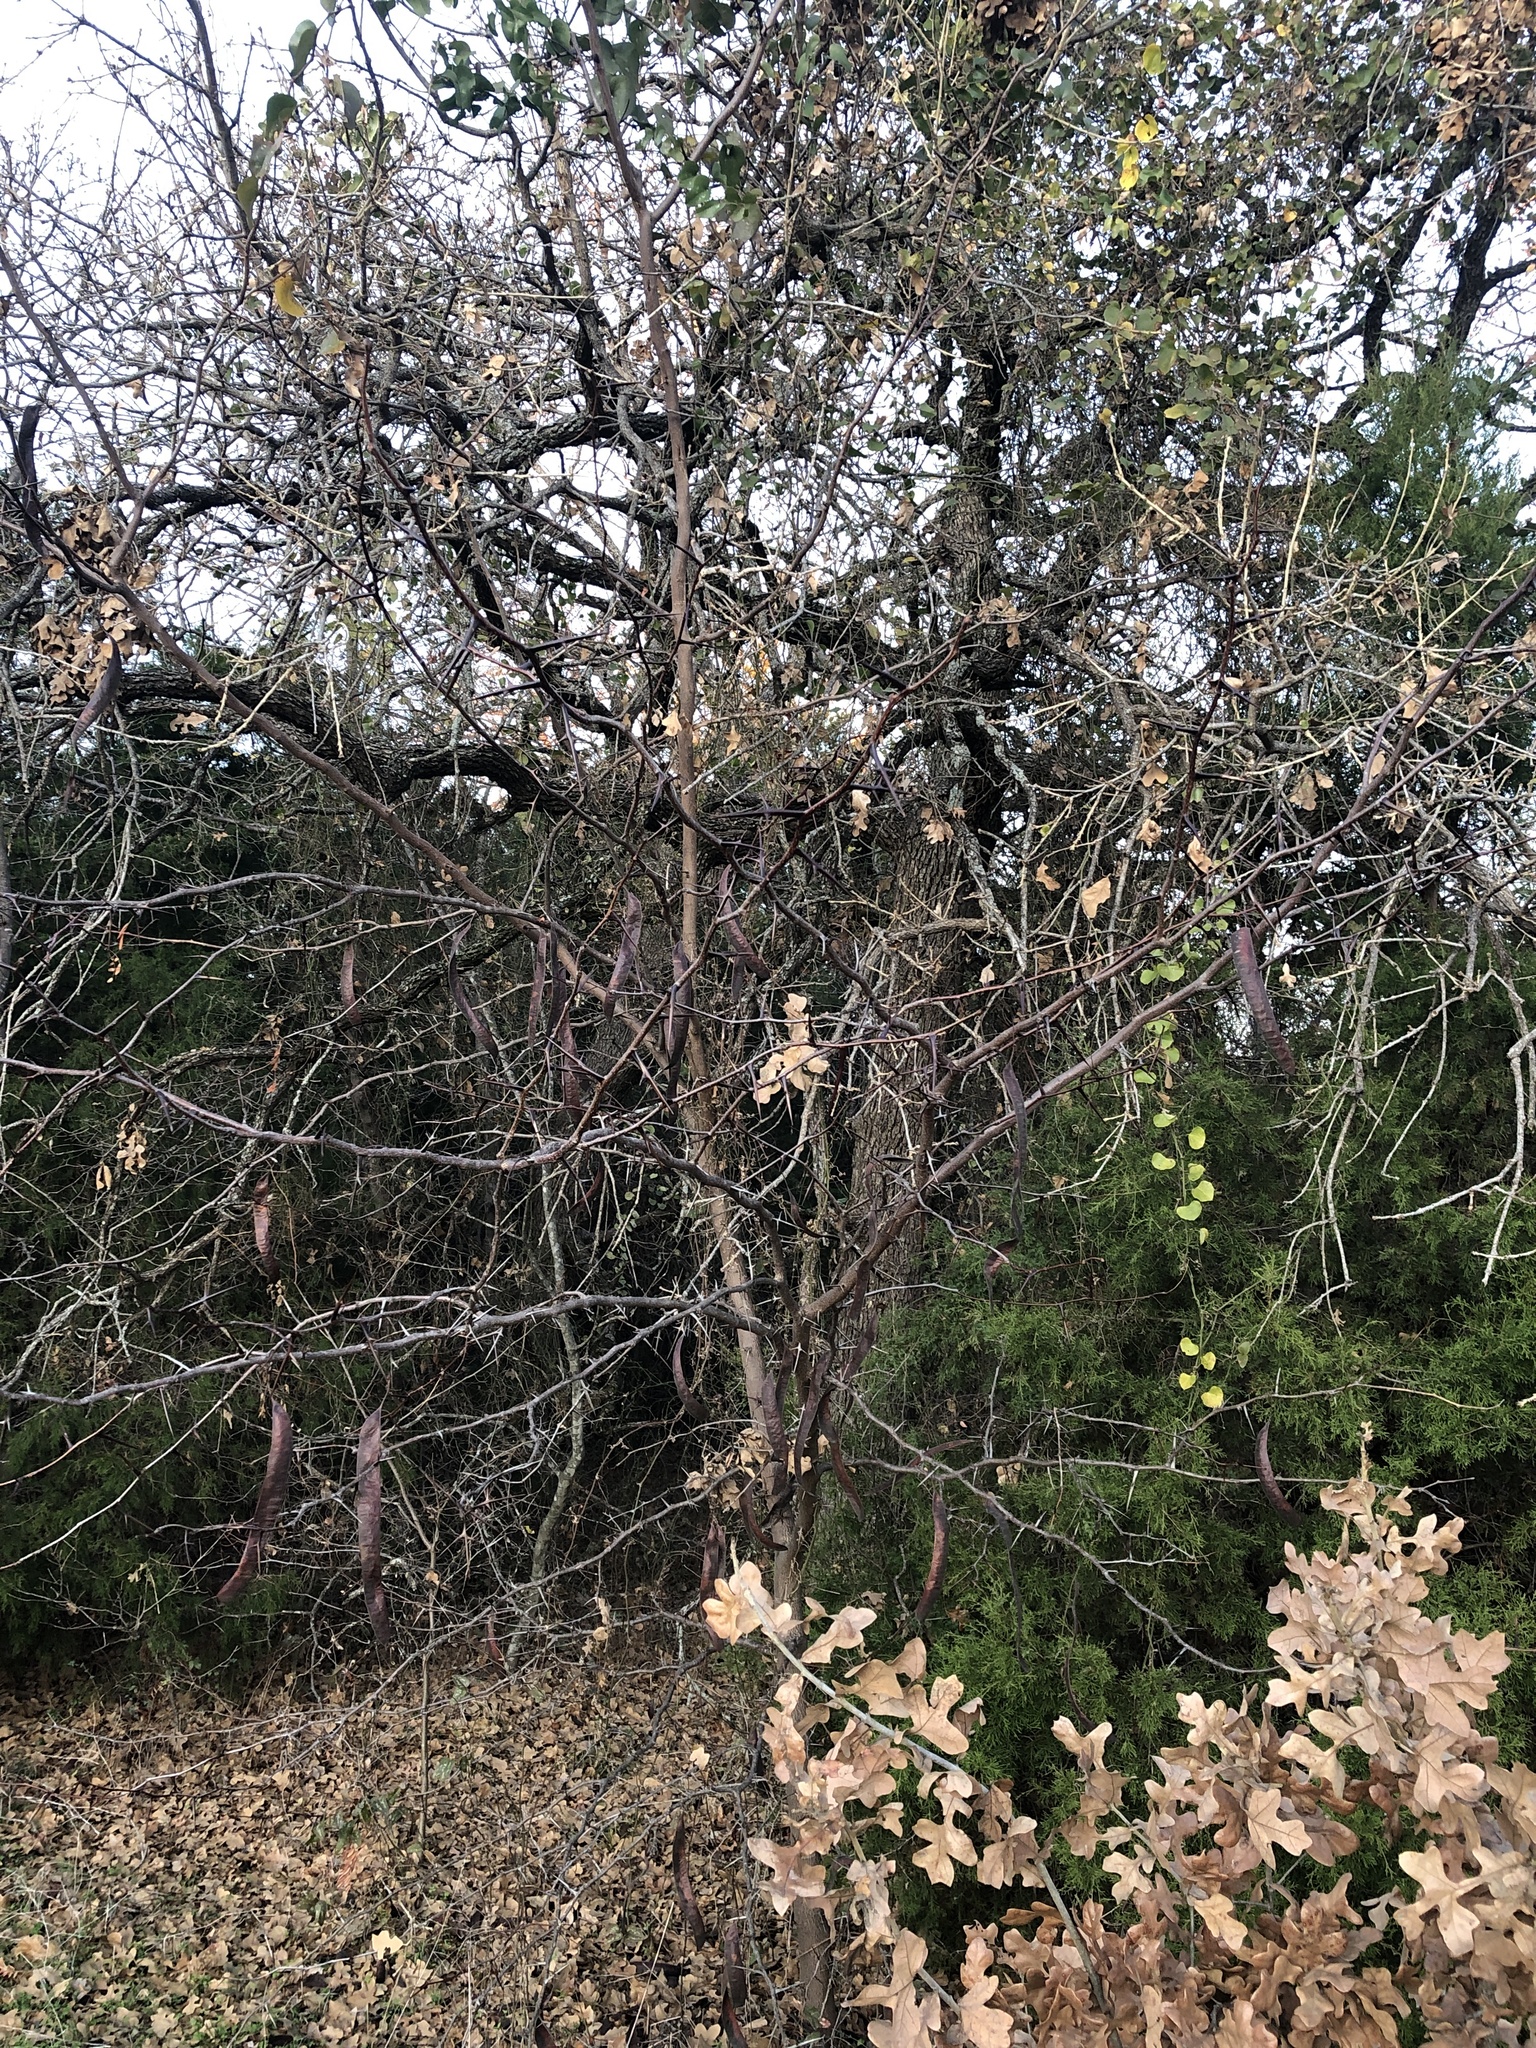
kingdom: Plantae
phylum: Tracheophyta
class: Magnoliopsida
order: Fabales
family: Fabaceae
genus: Gleditsia
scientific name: Gleditsia triacanthos
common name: Common honeylocust
